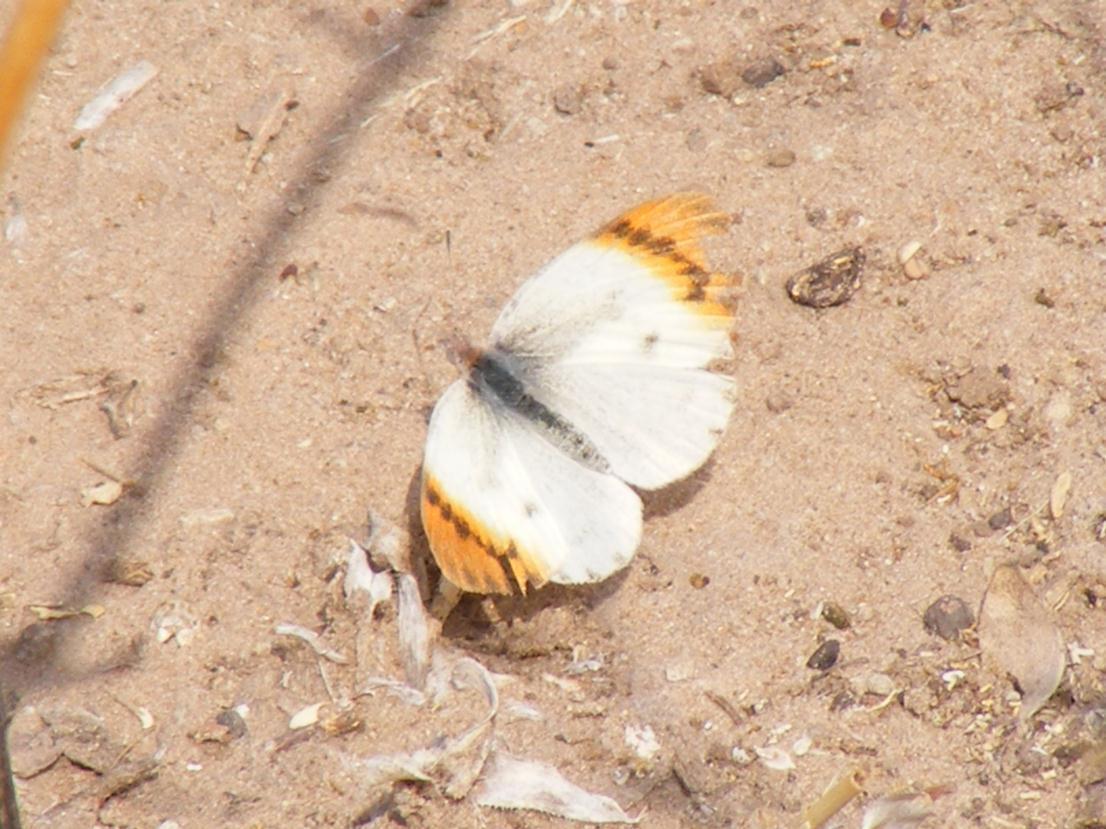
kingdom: Animalia
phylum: Arthropoda
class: Insecta
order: Lepidoptera
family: Pieridae
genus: Colotis
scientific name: Colotis evenina
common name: Common orange tip
